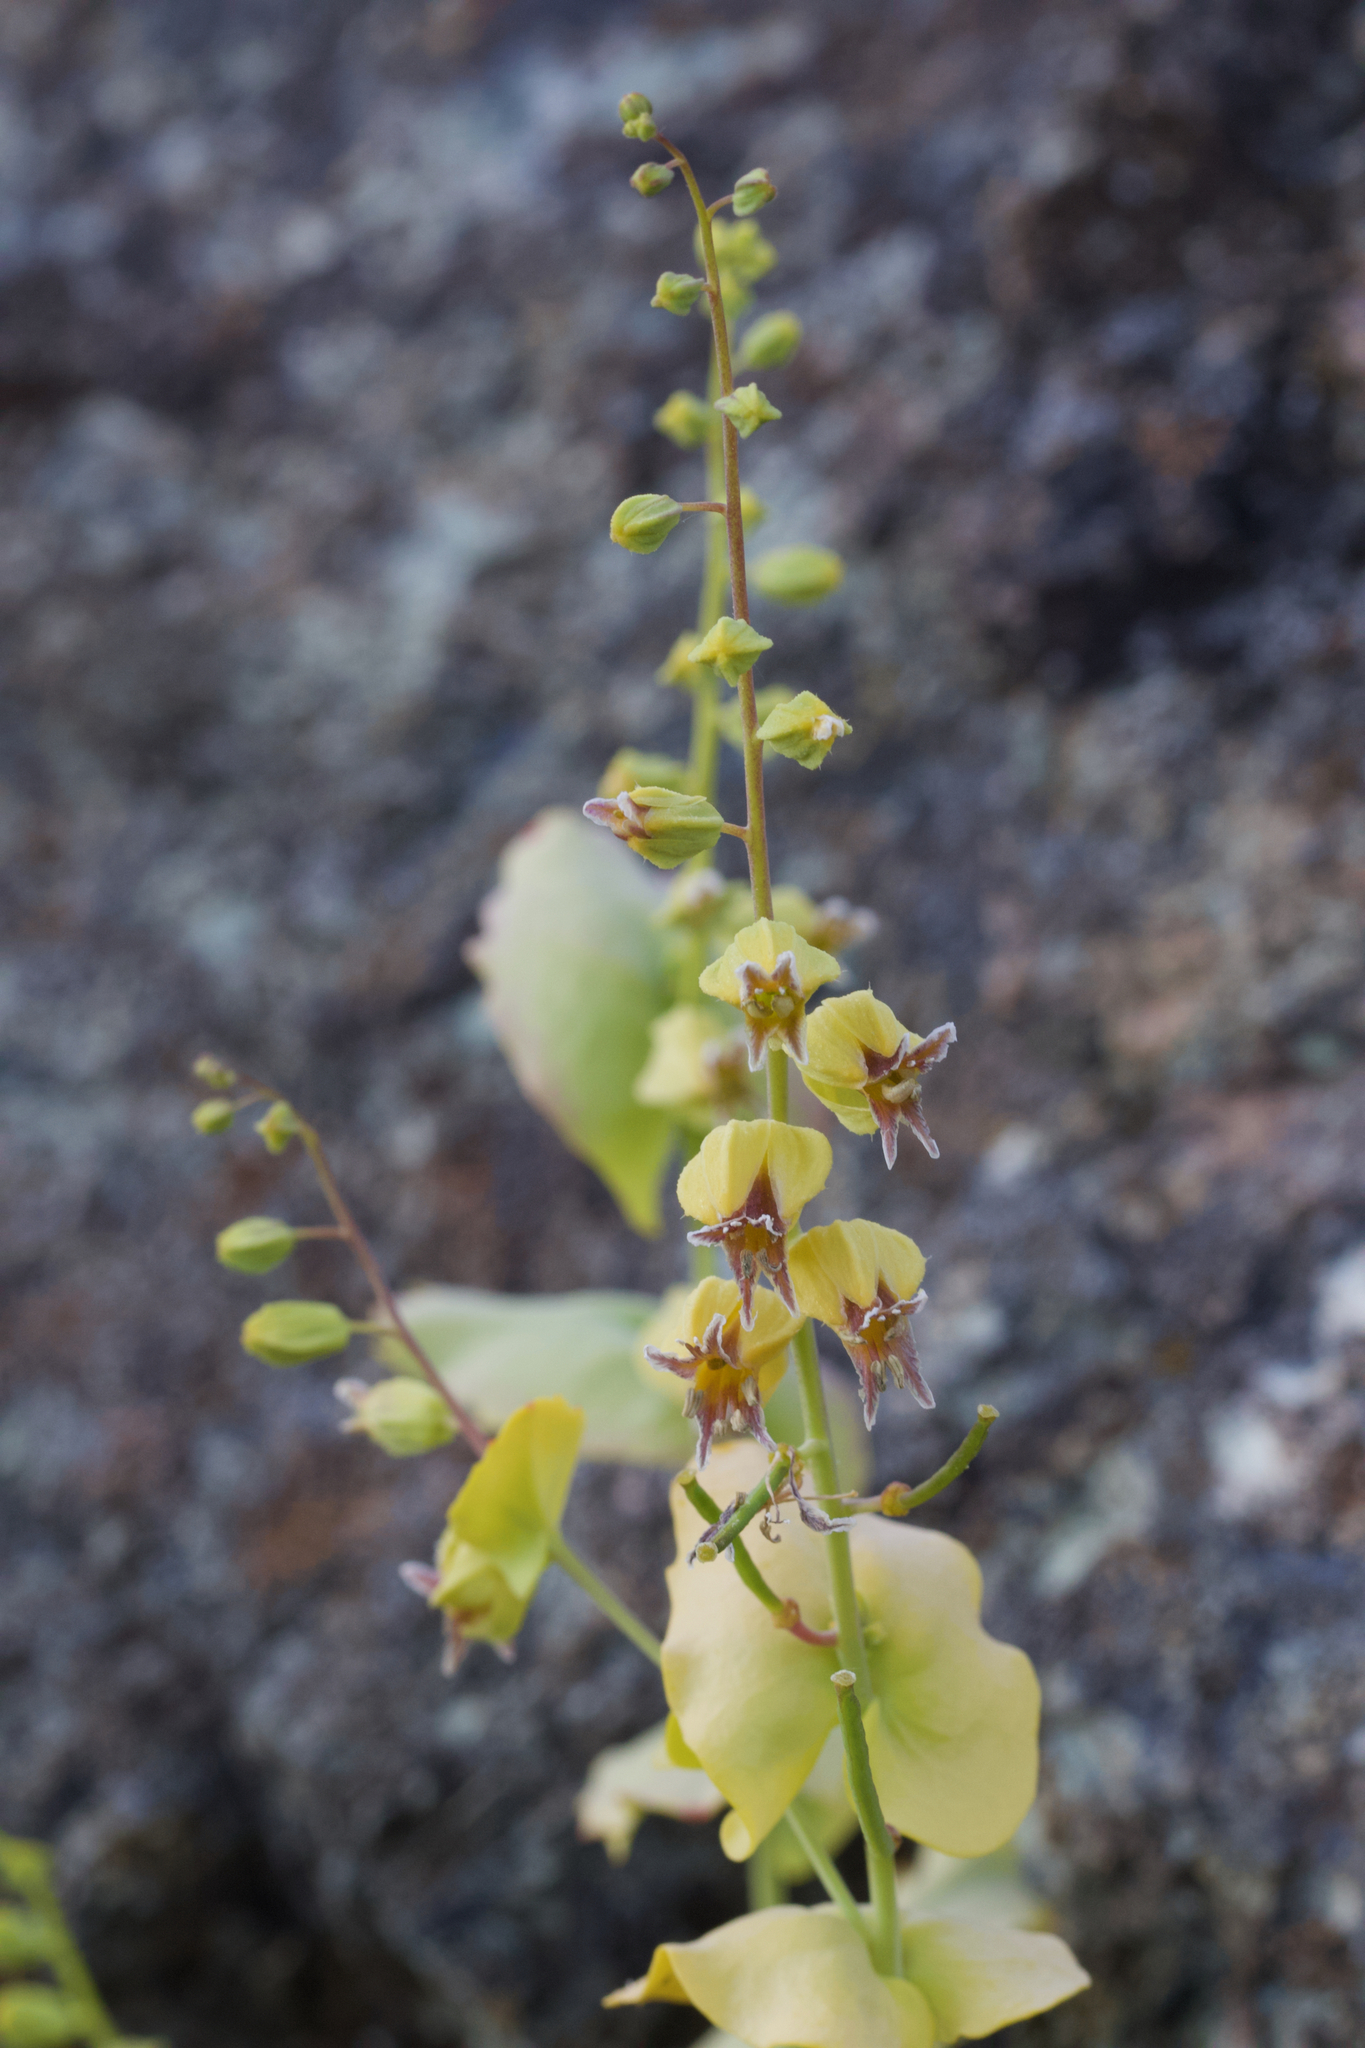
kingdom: Plantae
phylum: Tracheophyta
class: Magnoliopsida
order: Brassicales
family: Brassicaceae
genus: Streptanthus
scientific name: Streptanthus anomalus
